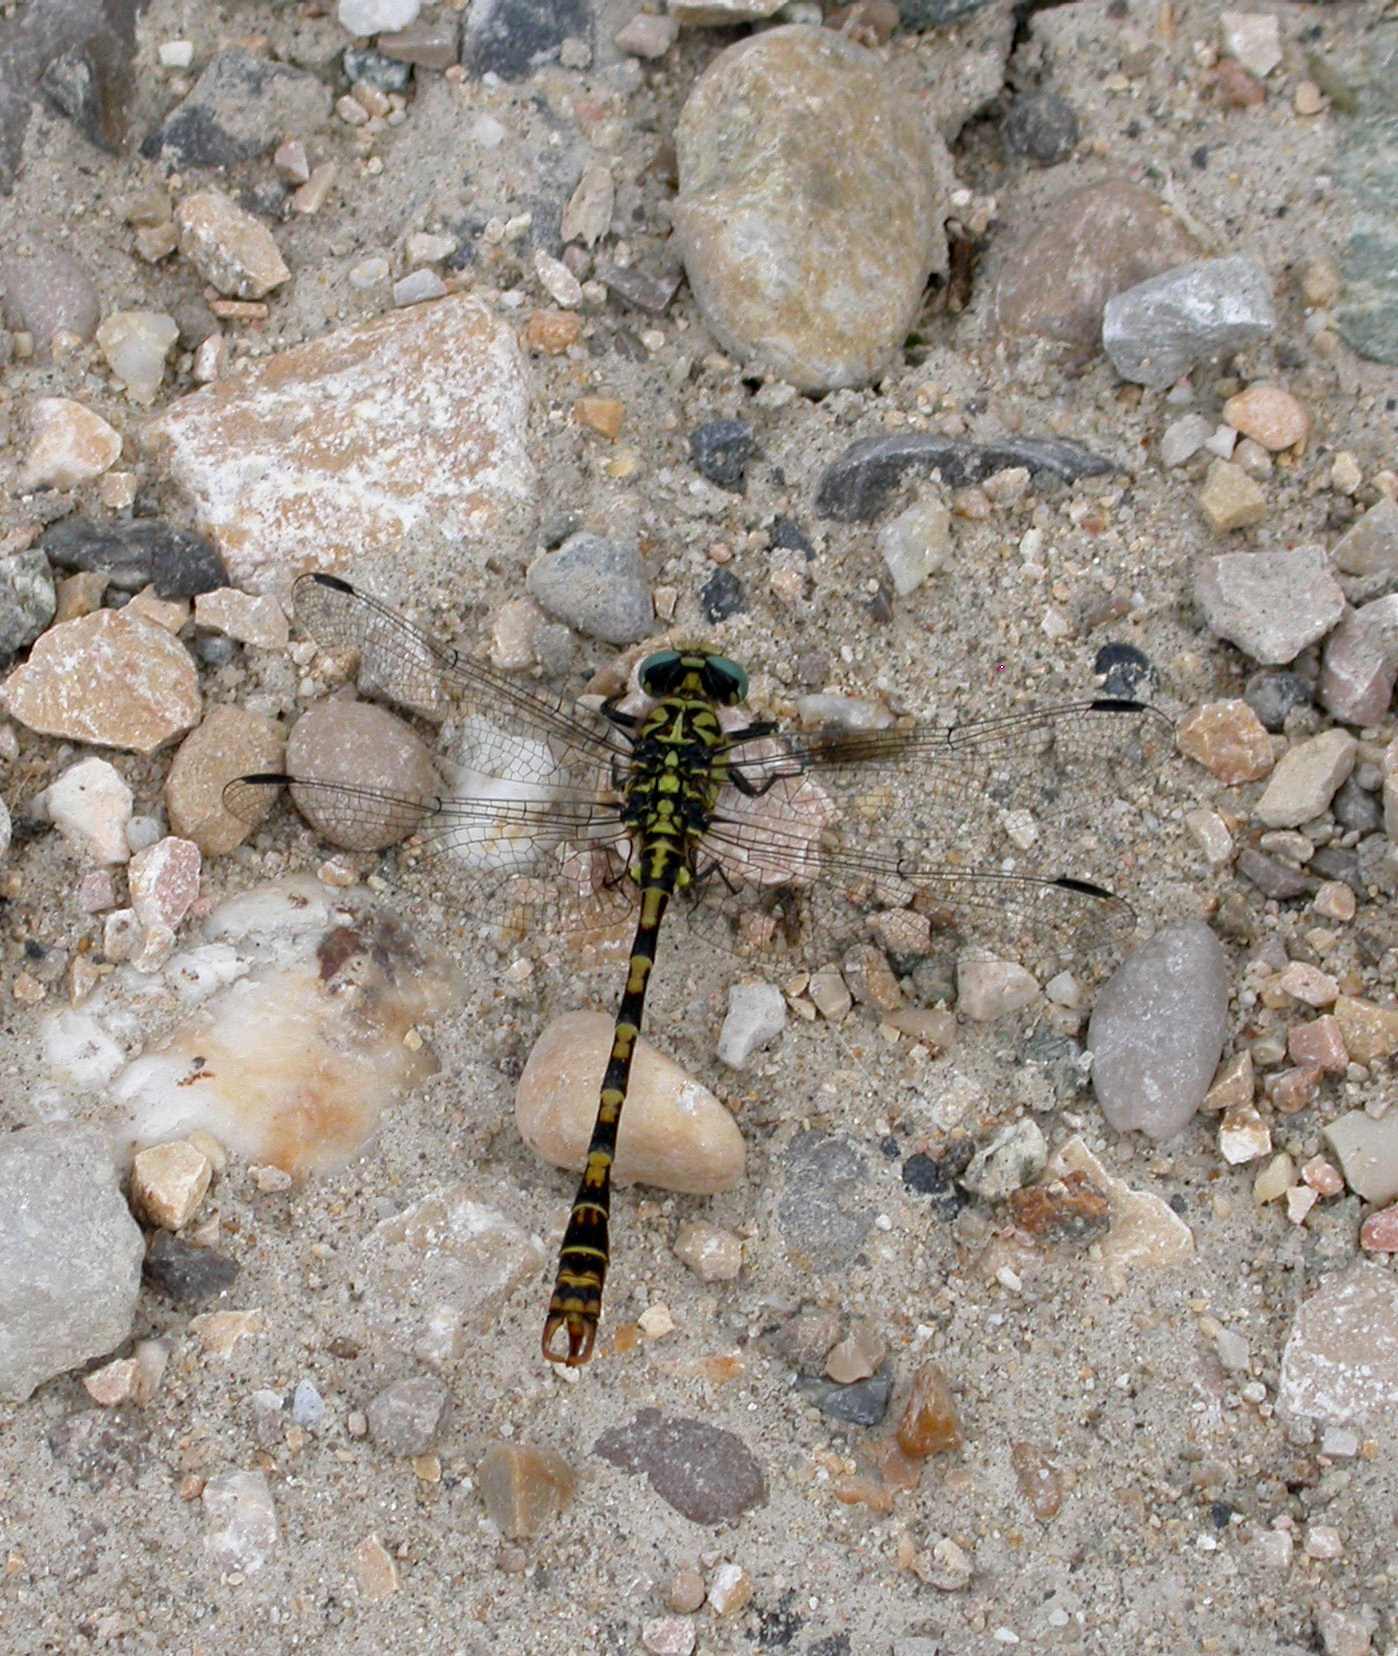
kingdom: Animalia
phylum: Arthropoda
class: Insecta
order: Odonata
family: Gomphidae
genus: Onychogomphus
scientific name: Onychogomphus forcipatus
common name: Small pincertail
